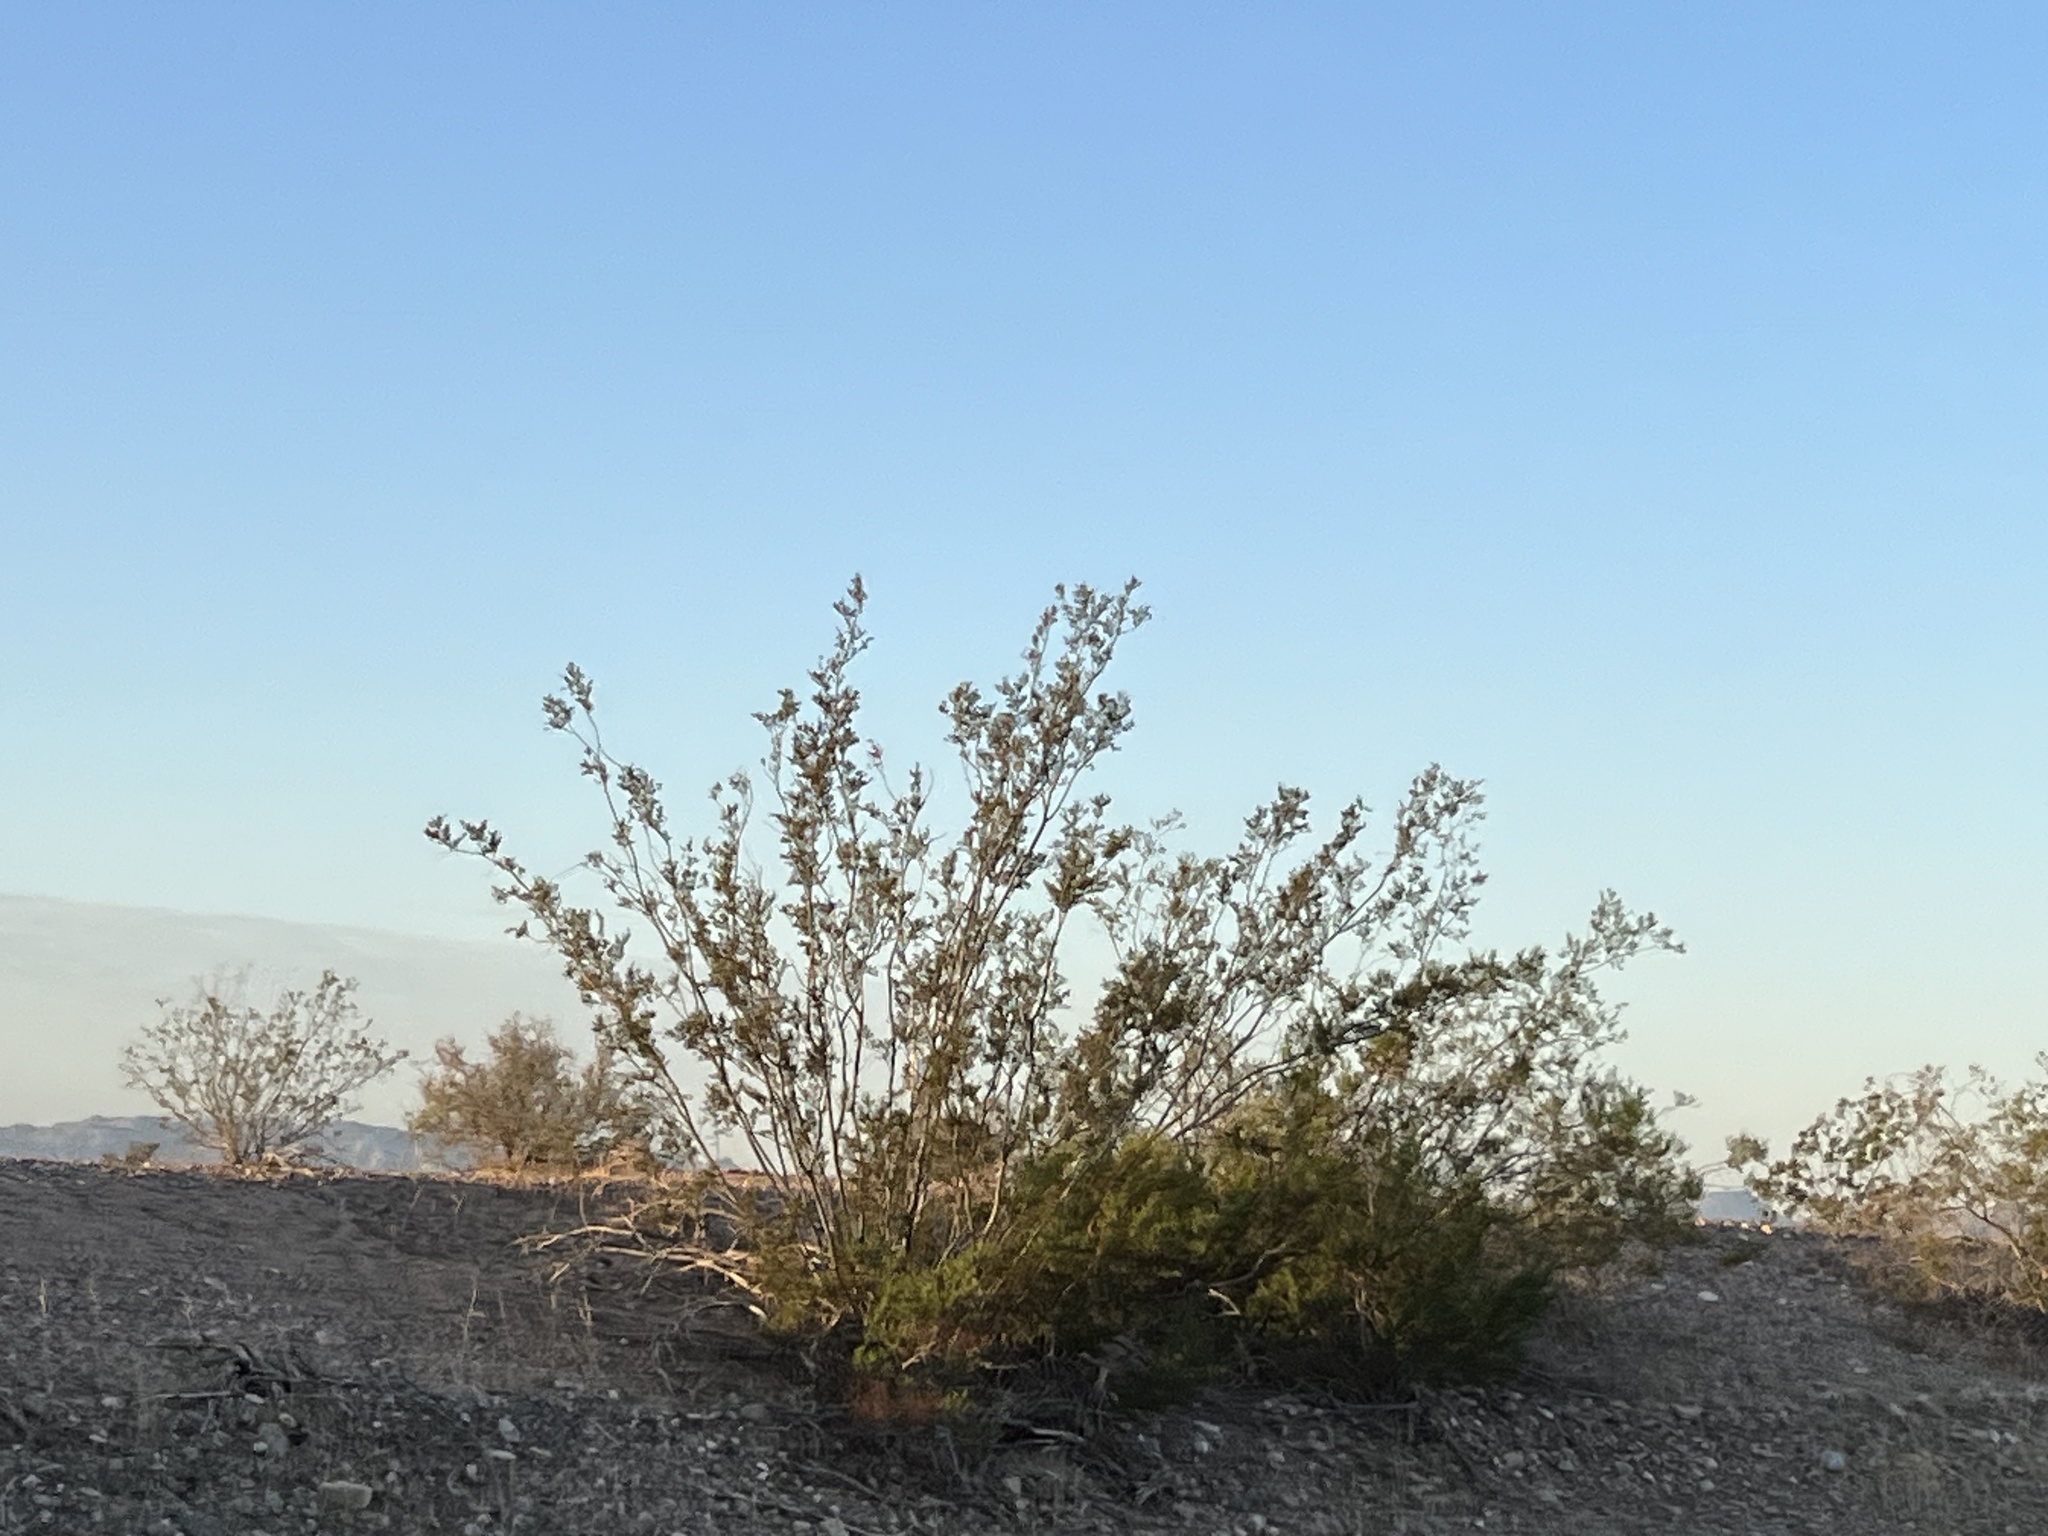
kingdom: Plantae
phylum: Tracheophyta
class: Magnoliopsida
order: Zygophyllales
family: Zygophyllaceae
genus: Larrea
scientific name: Larrea tridentata
